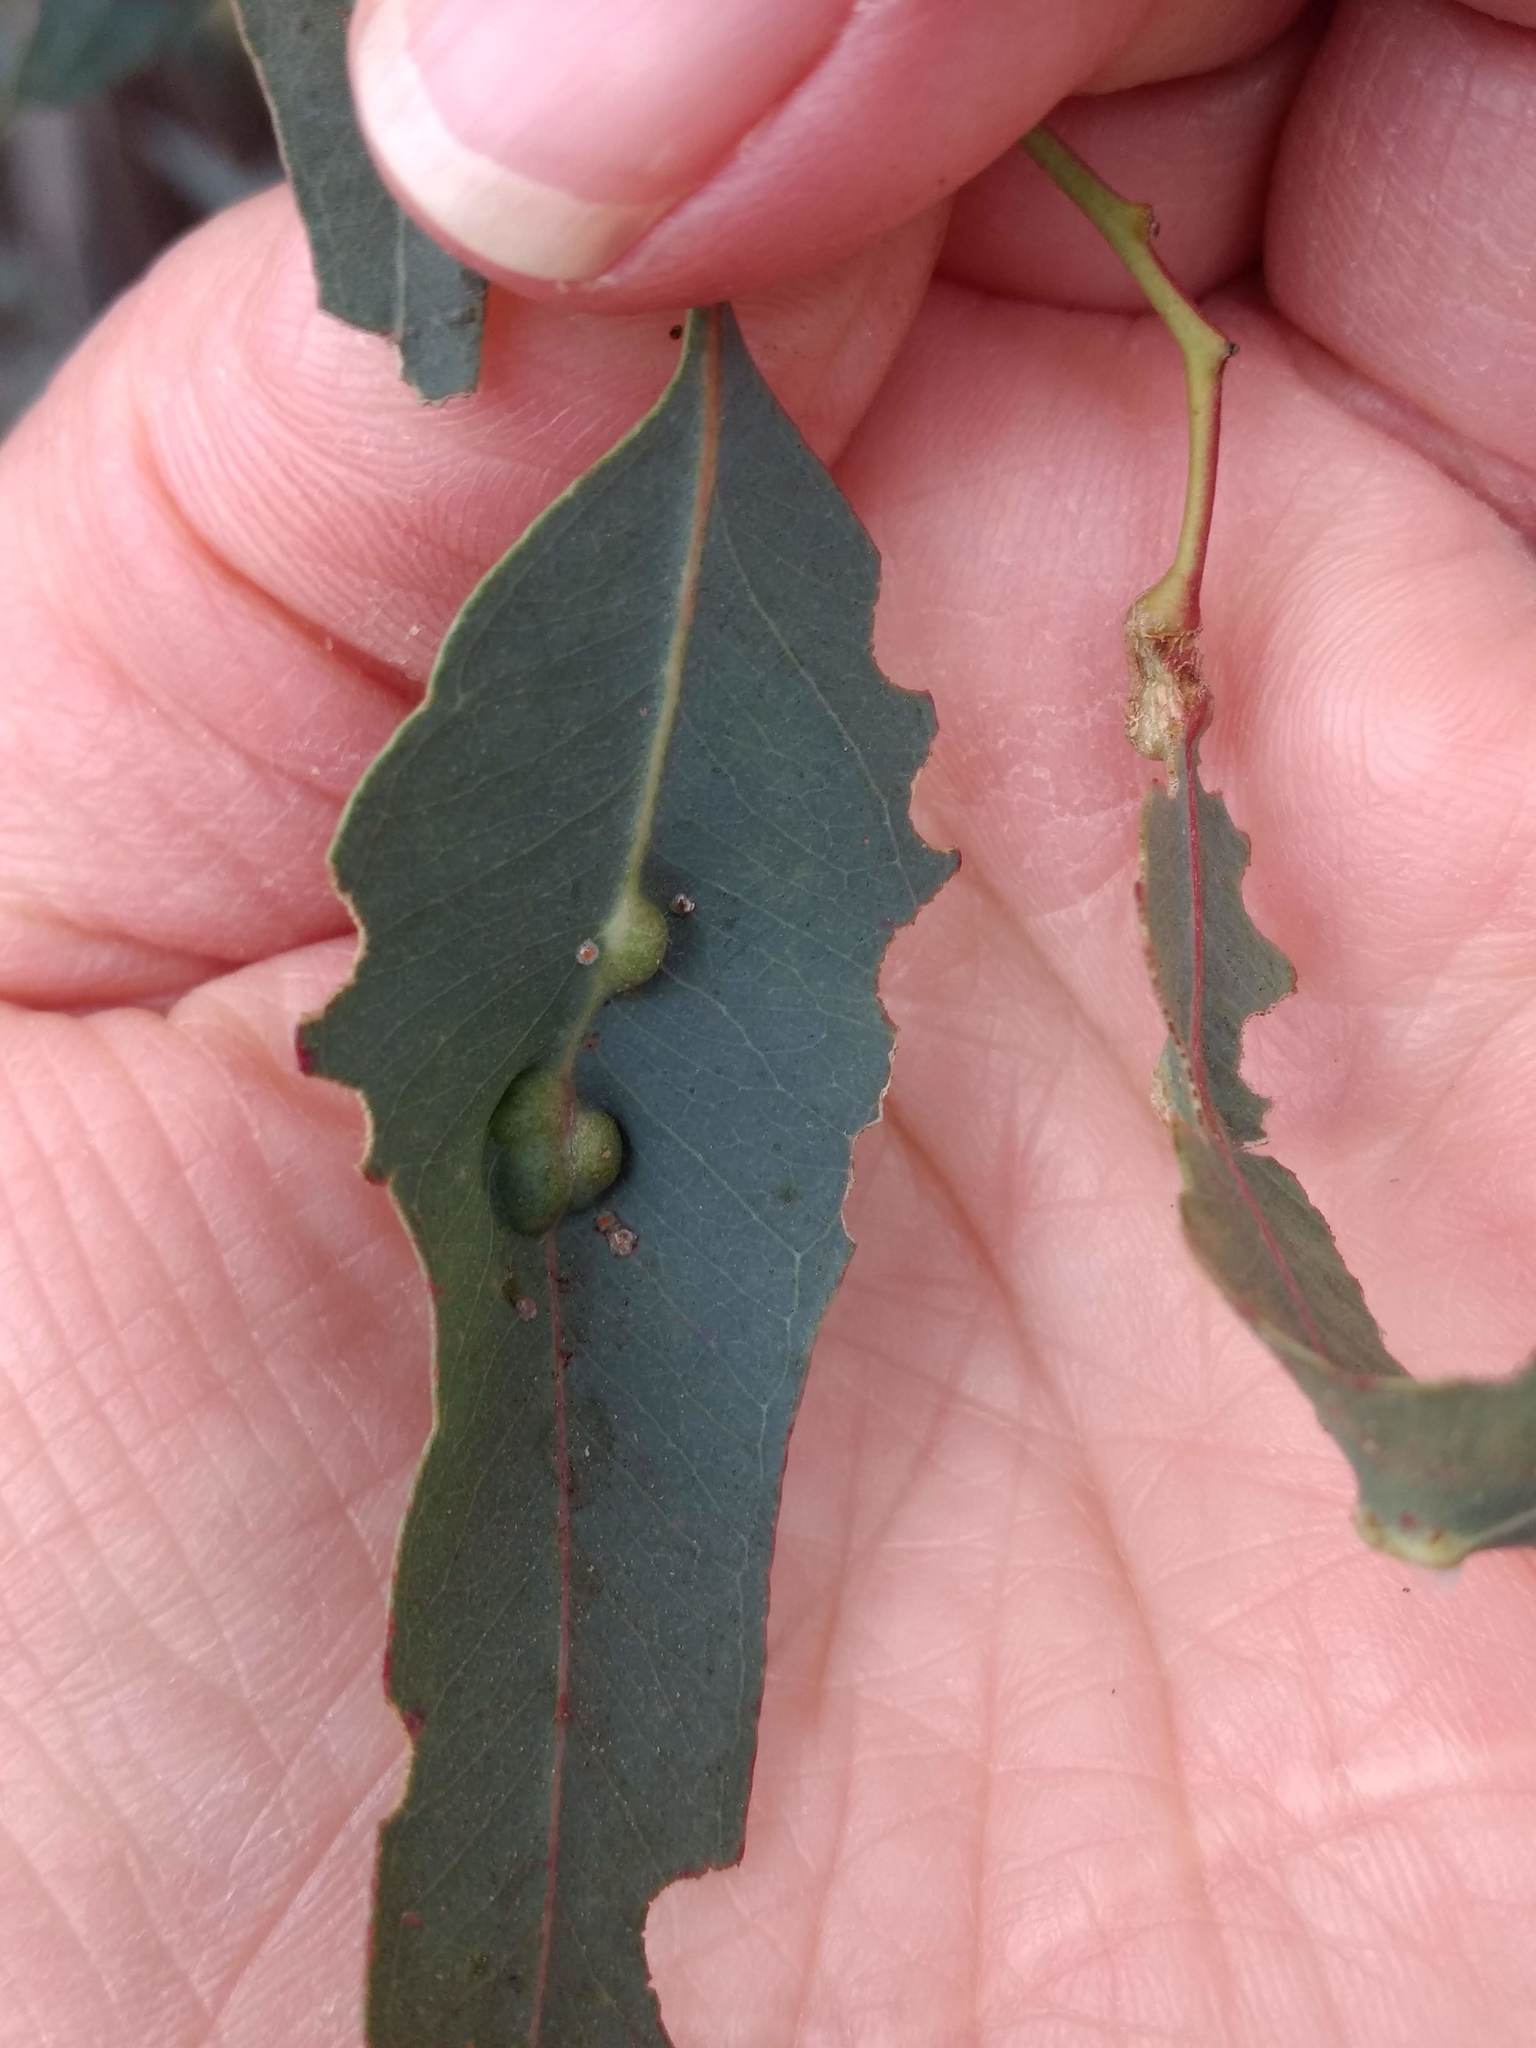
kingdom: Plantae
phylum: Tracheophyta
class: Magnoliopsida
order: Myrtales
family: Myrtaceae
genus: Eucalyptus
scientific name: Eucalyptus camaldulensis
